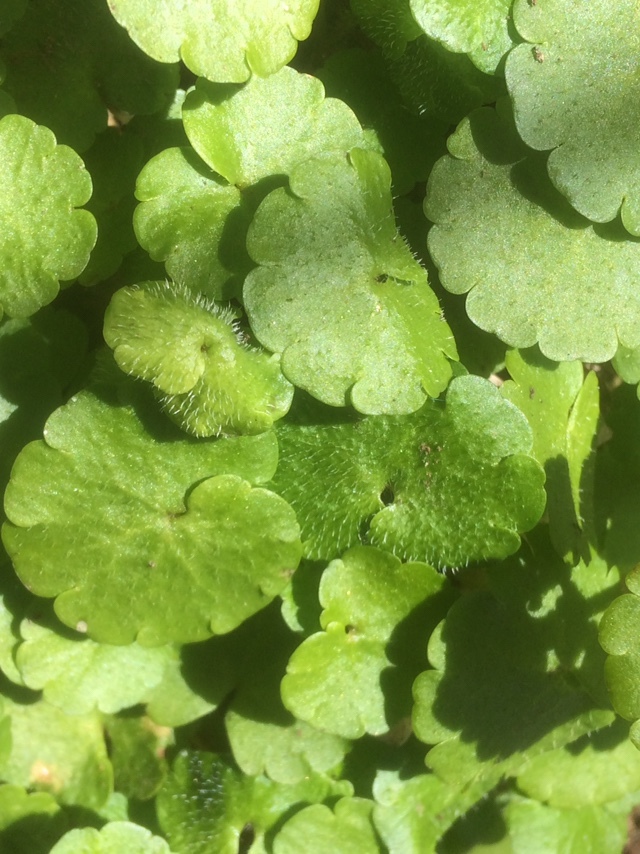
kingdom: Plantae
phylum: Tracheophyta
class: Magnoliopsida
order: Saxifragales
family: Saxifragaceae
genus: Chrysosplenium
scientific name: Chrysosplenium alternifolium
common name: Alternate-leaved golden-saxifrage
